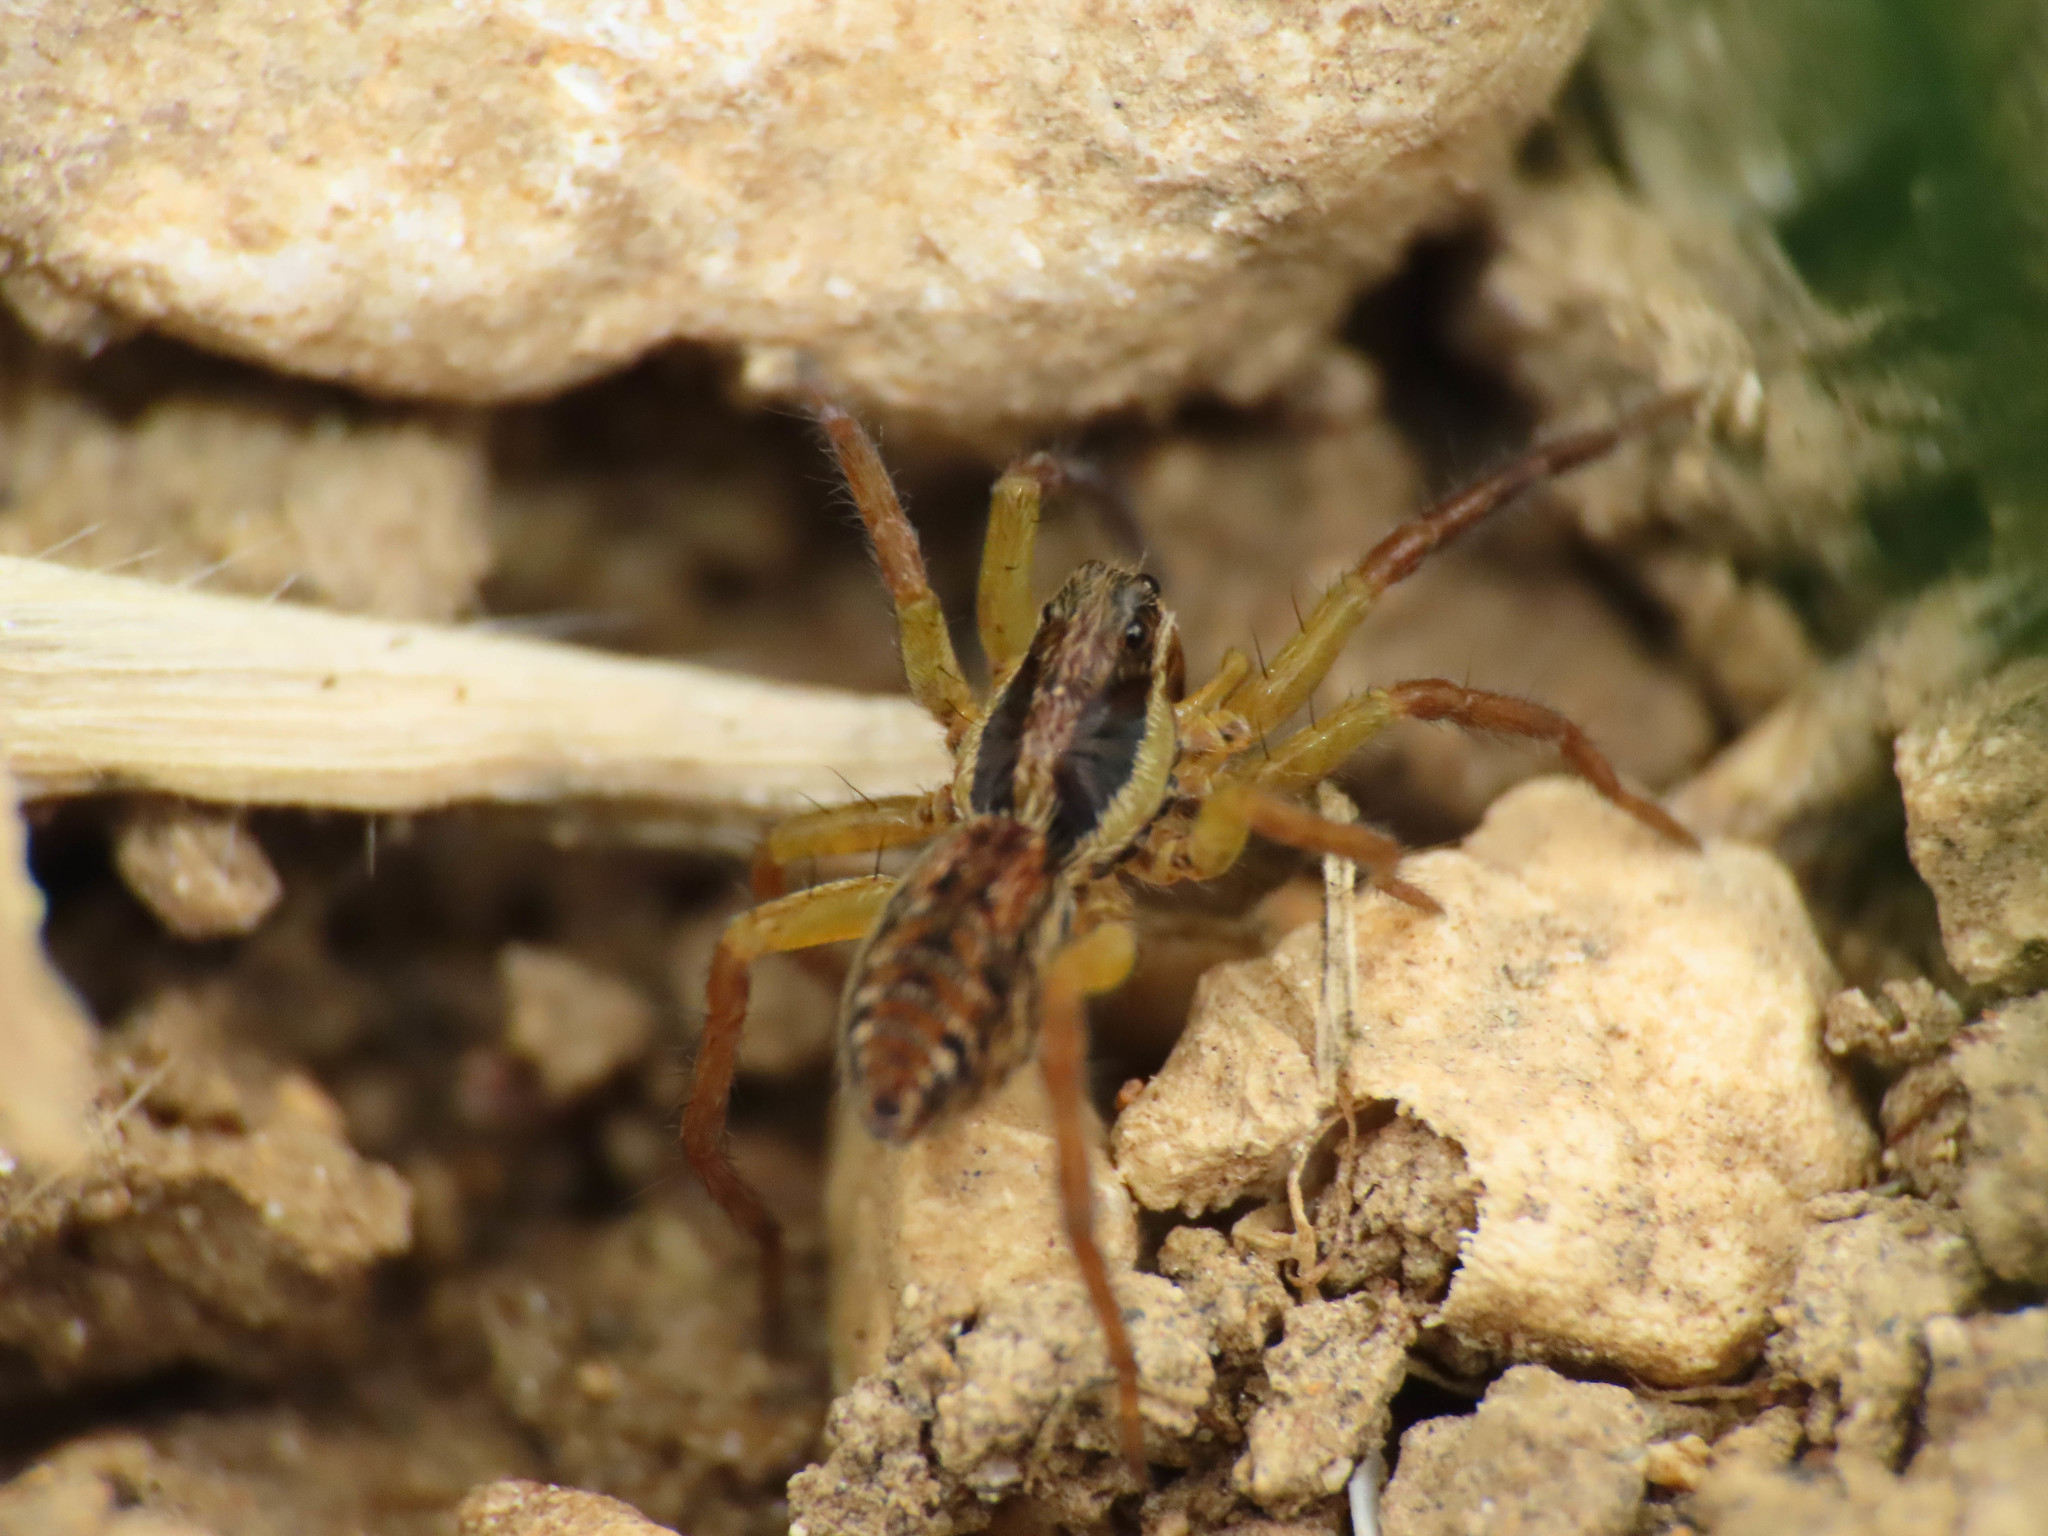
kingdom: Animalia
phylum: Arthropoda
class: Arachnida
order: Araneae
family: Lycosidae
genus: Hogna
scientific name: Hogna radiata
